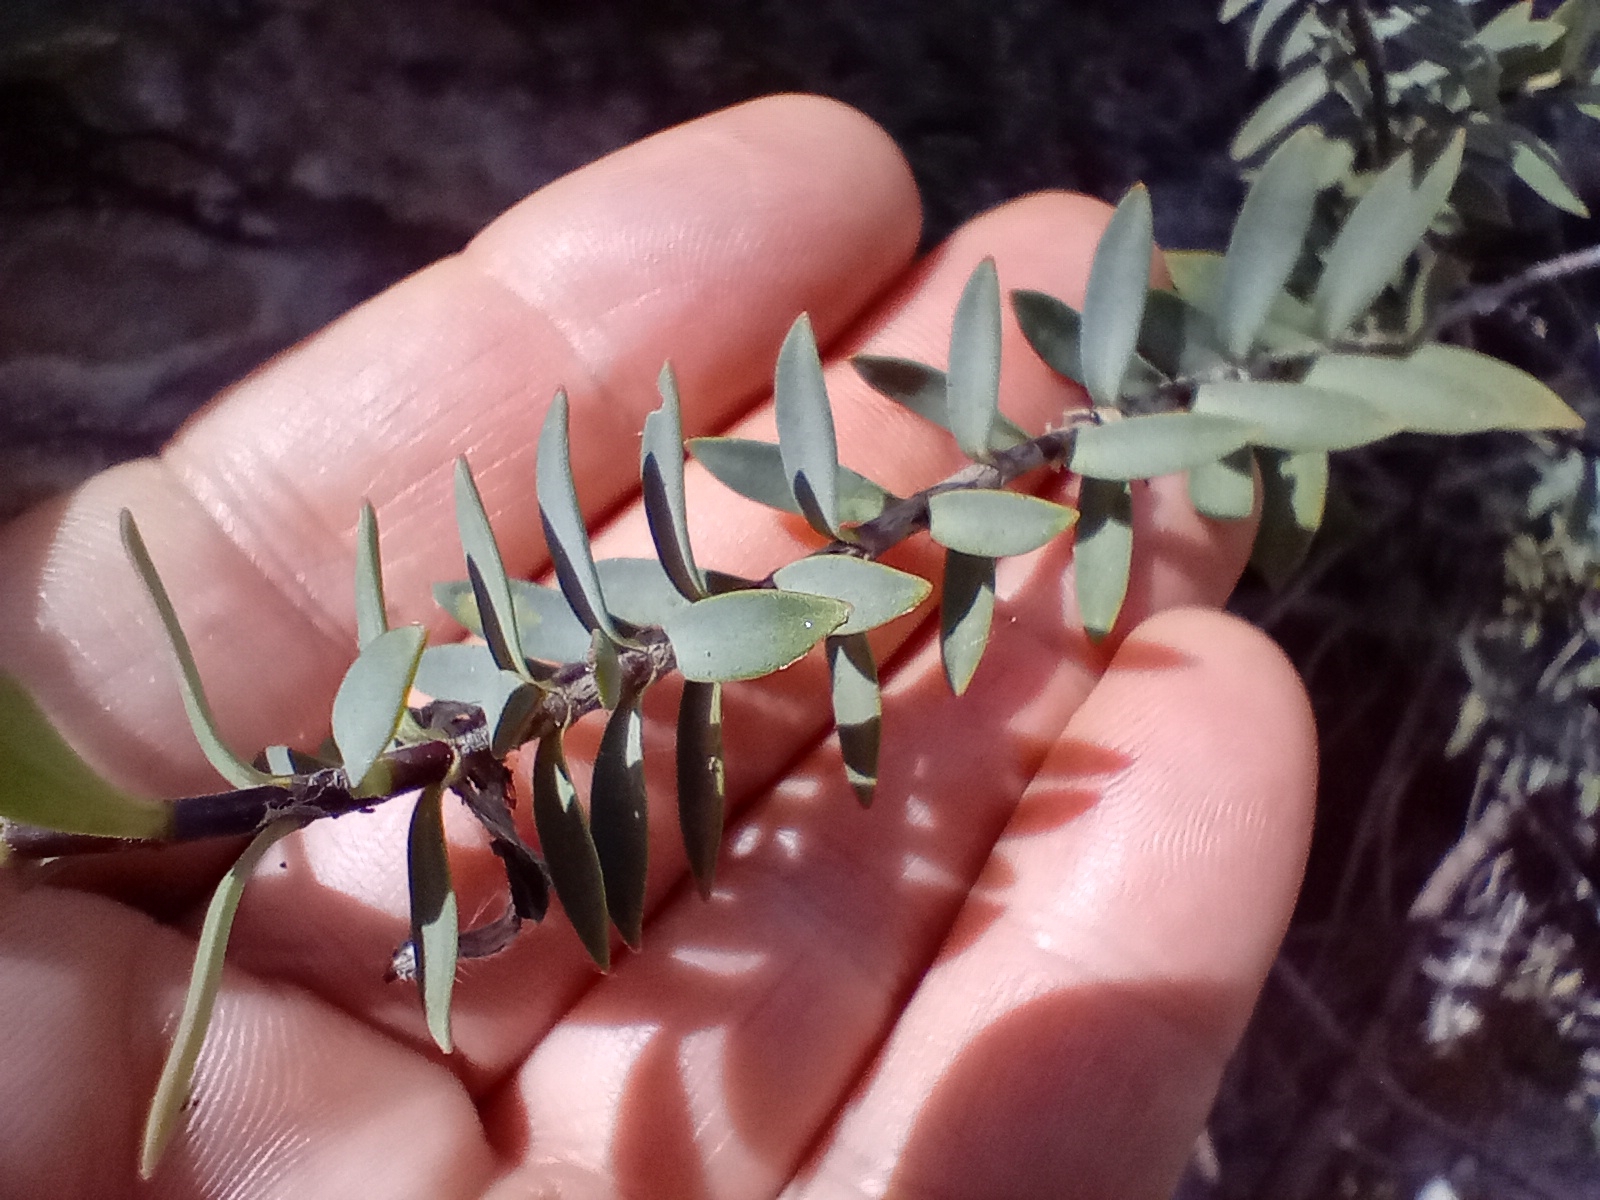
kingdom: Plantae
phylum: Tracheophyta
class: Magnoliopsida
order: Lamiales
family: Plantaginaceae
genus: Veronica
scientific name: Veronica pimeleoides
